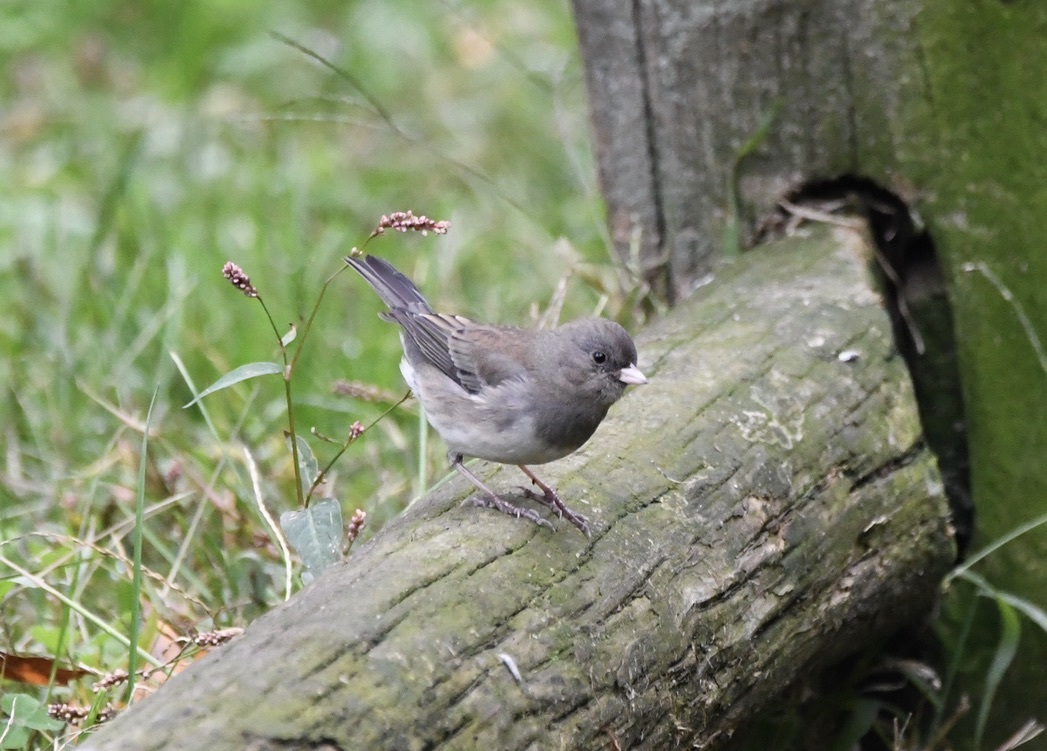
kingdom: Animalia
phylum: Chordata
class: Aves
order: Passeriformes
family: Passerellidae
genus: Junco
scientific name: Junco hyemalis
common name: Dark-eyed junco
